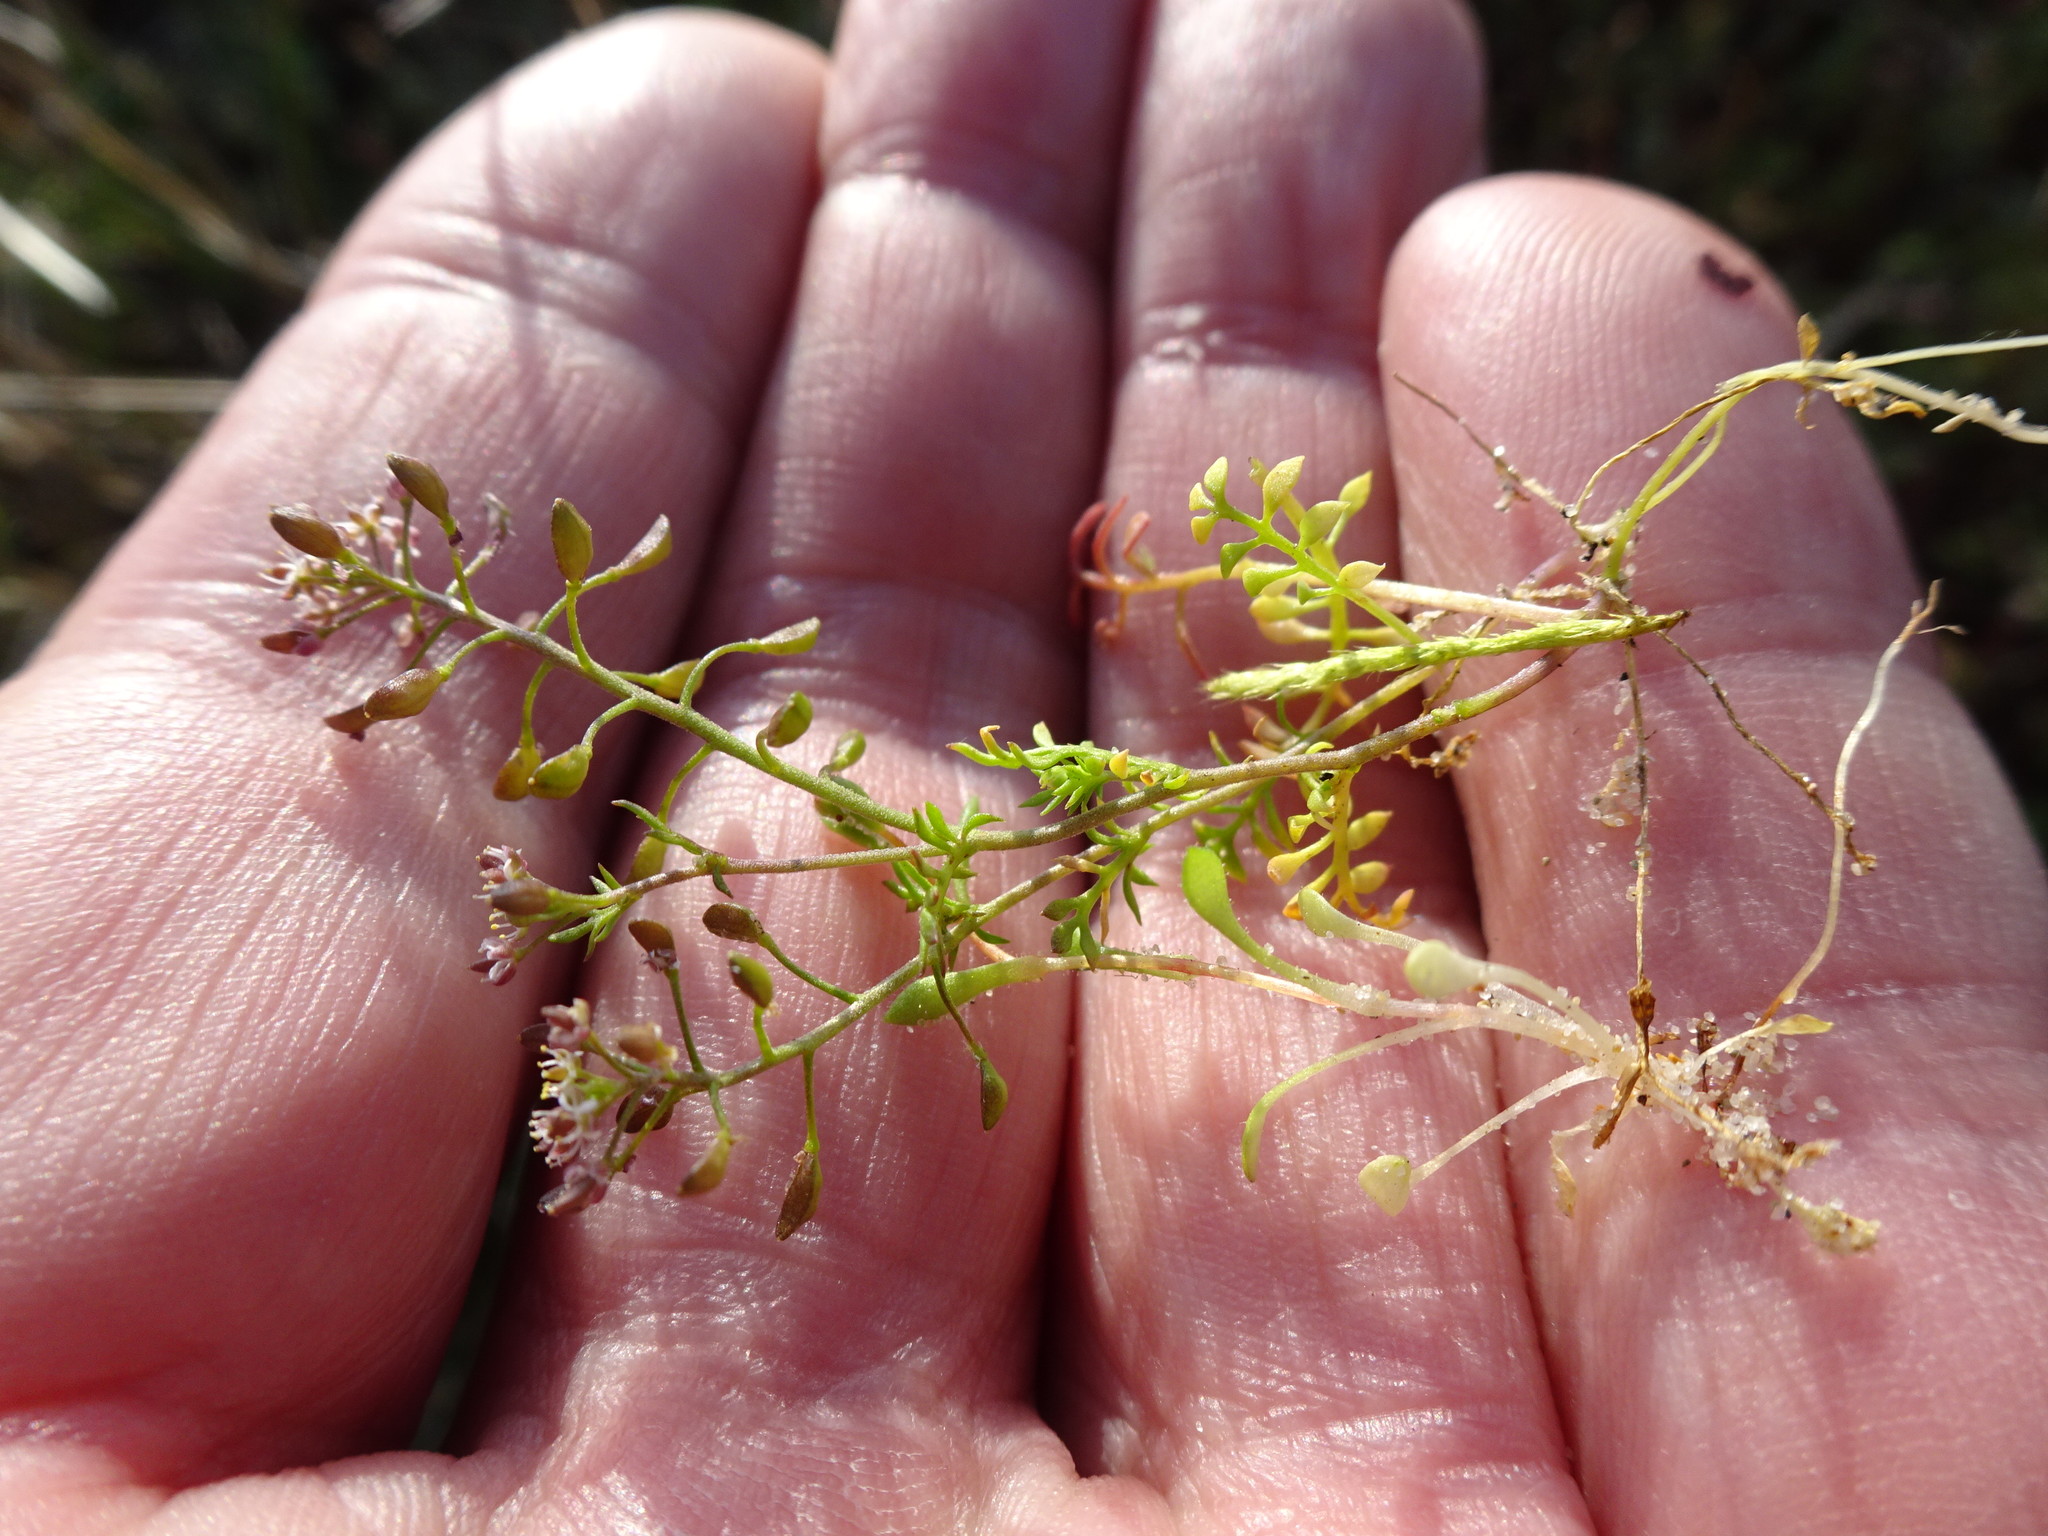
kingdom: Plantae
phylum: Tracheophyta
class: Magnoliopsida
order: Brassicales
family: Brassicaceae
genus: Hornungia
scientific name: Hornungia petraea
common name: Hutchinsia
